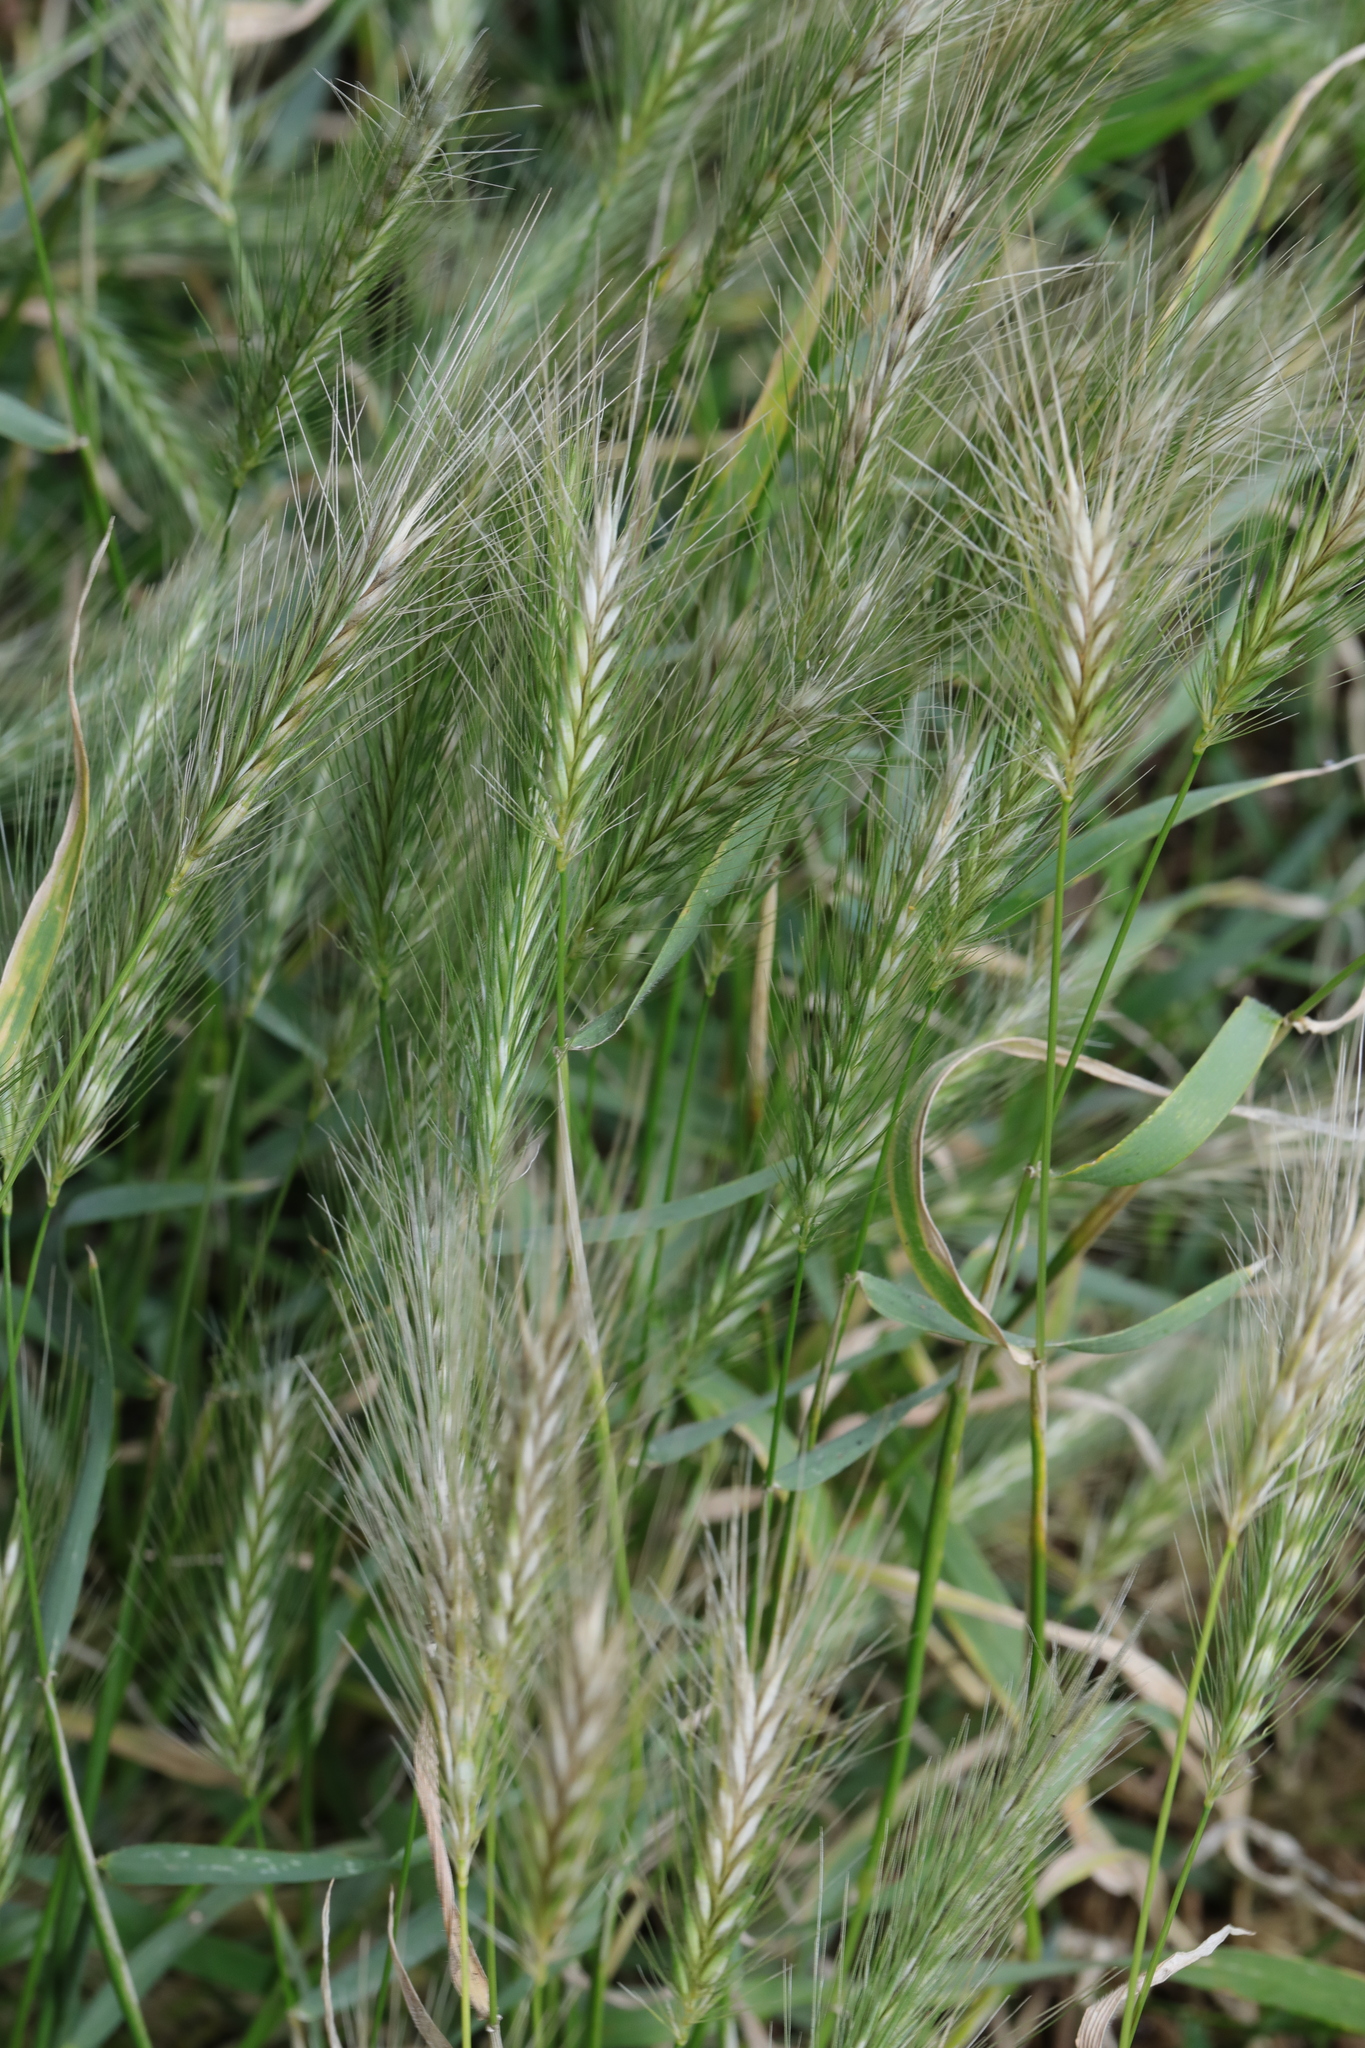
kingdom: Plantae
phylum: Tracheophyta
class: Liliopsida
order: Poales
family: Poaceae
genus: Hordeum
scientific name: Hordeum murinum
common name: Wall barley
